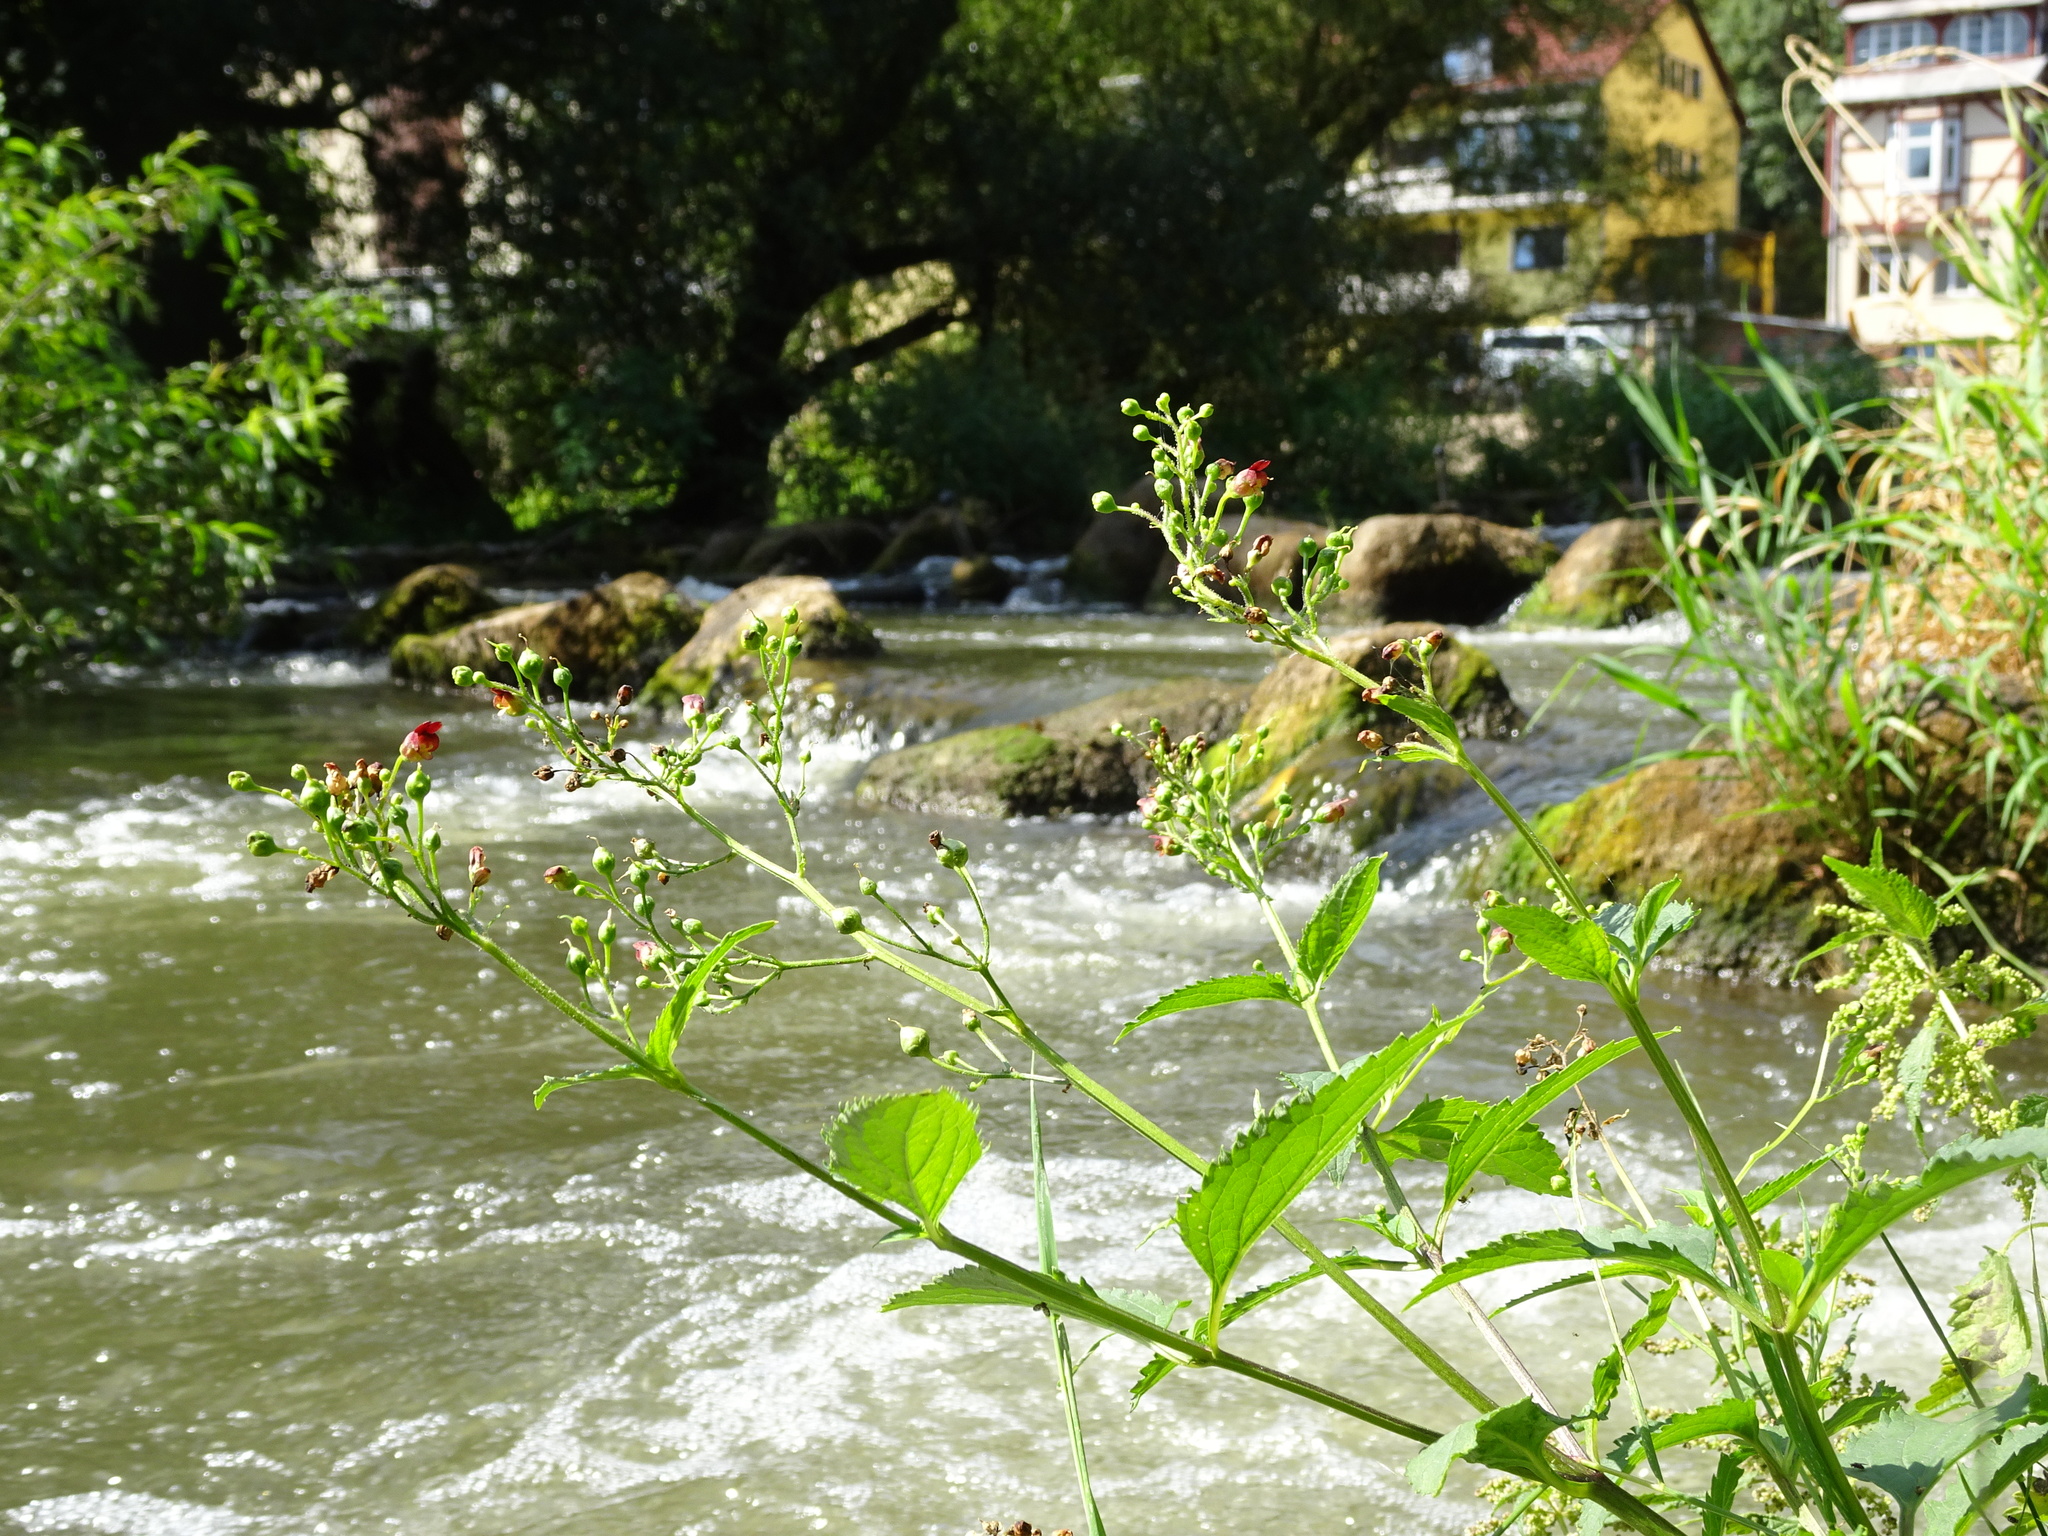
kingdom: Plantae
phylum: Tracheophyta
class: Magnoliopsida
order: Lamiales
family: Scrophulariaceae
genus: Scrophularia
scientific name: Scrophularia nodosa
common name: Common figwort
